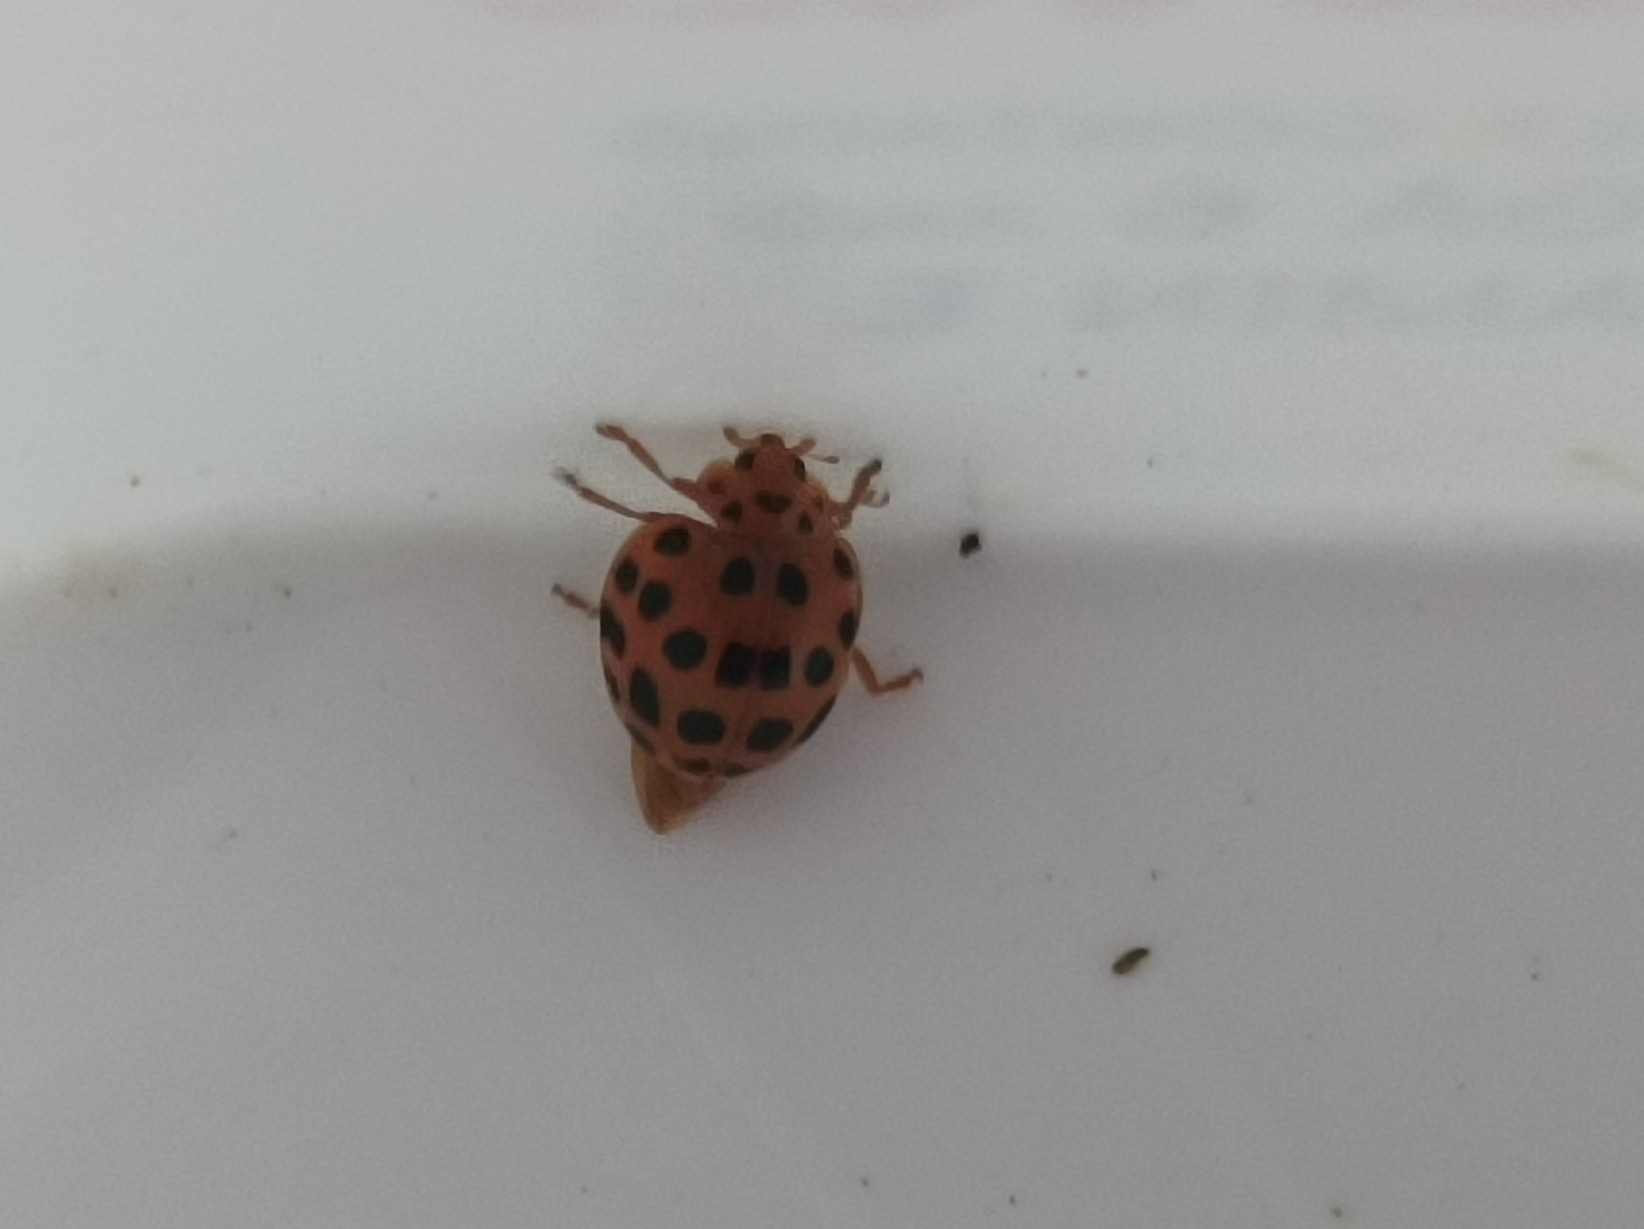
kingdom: Animalia
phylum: Arthropoda
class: Insecta
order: Coleoptera
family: Coccinellidae
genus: Henosepilachna
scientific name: Henosepilachna vigintioctopunctata
